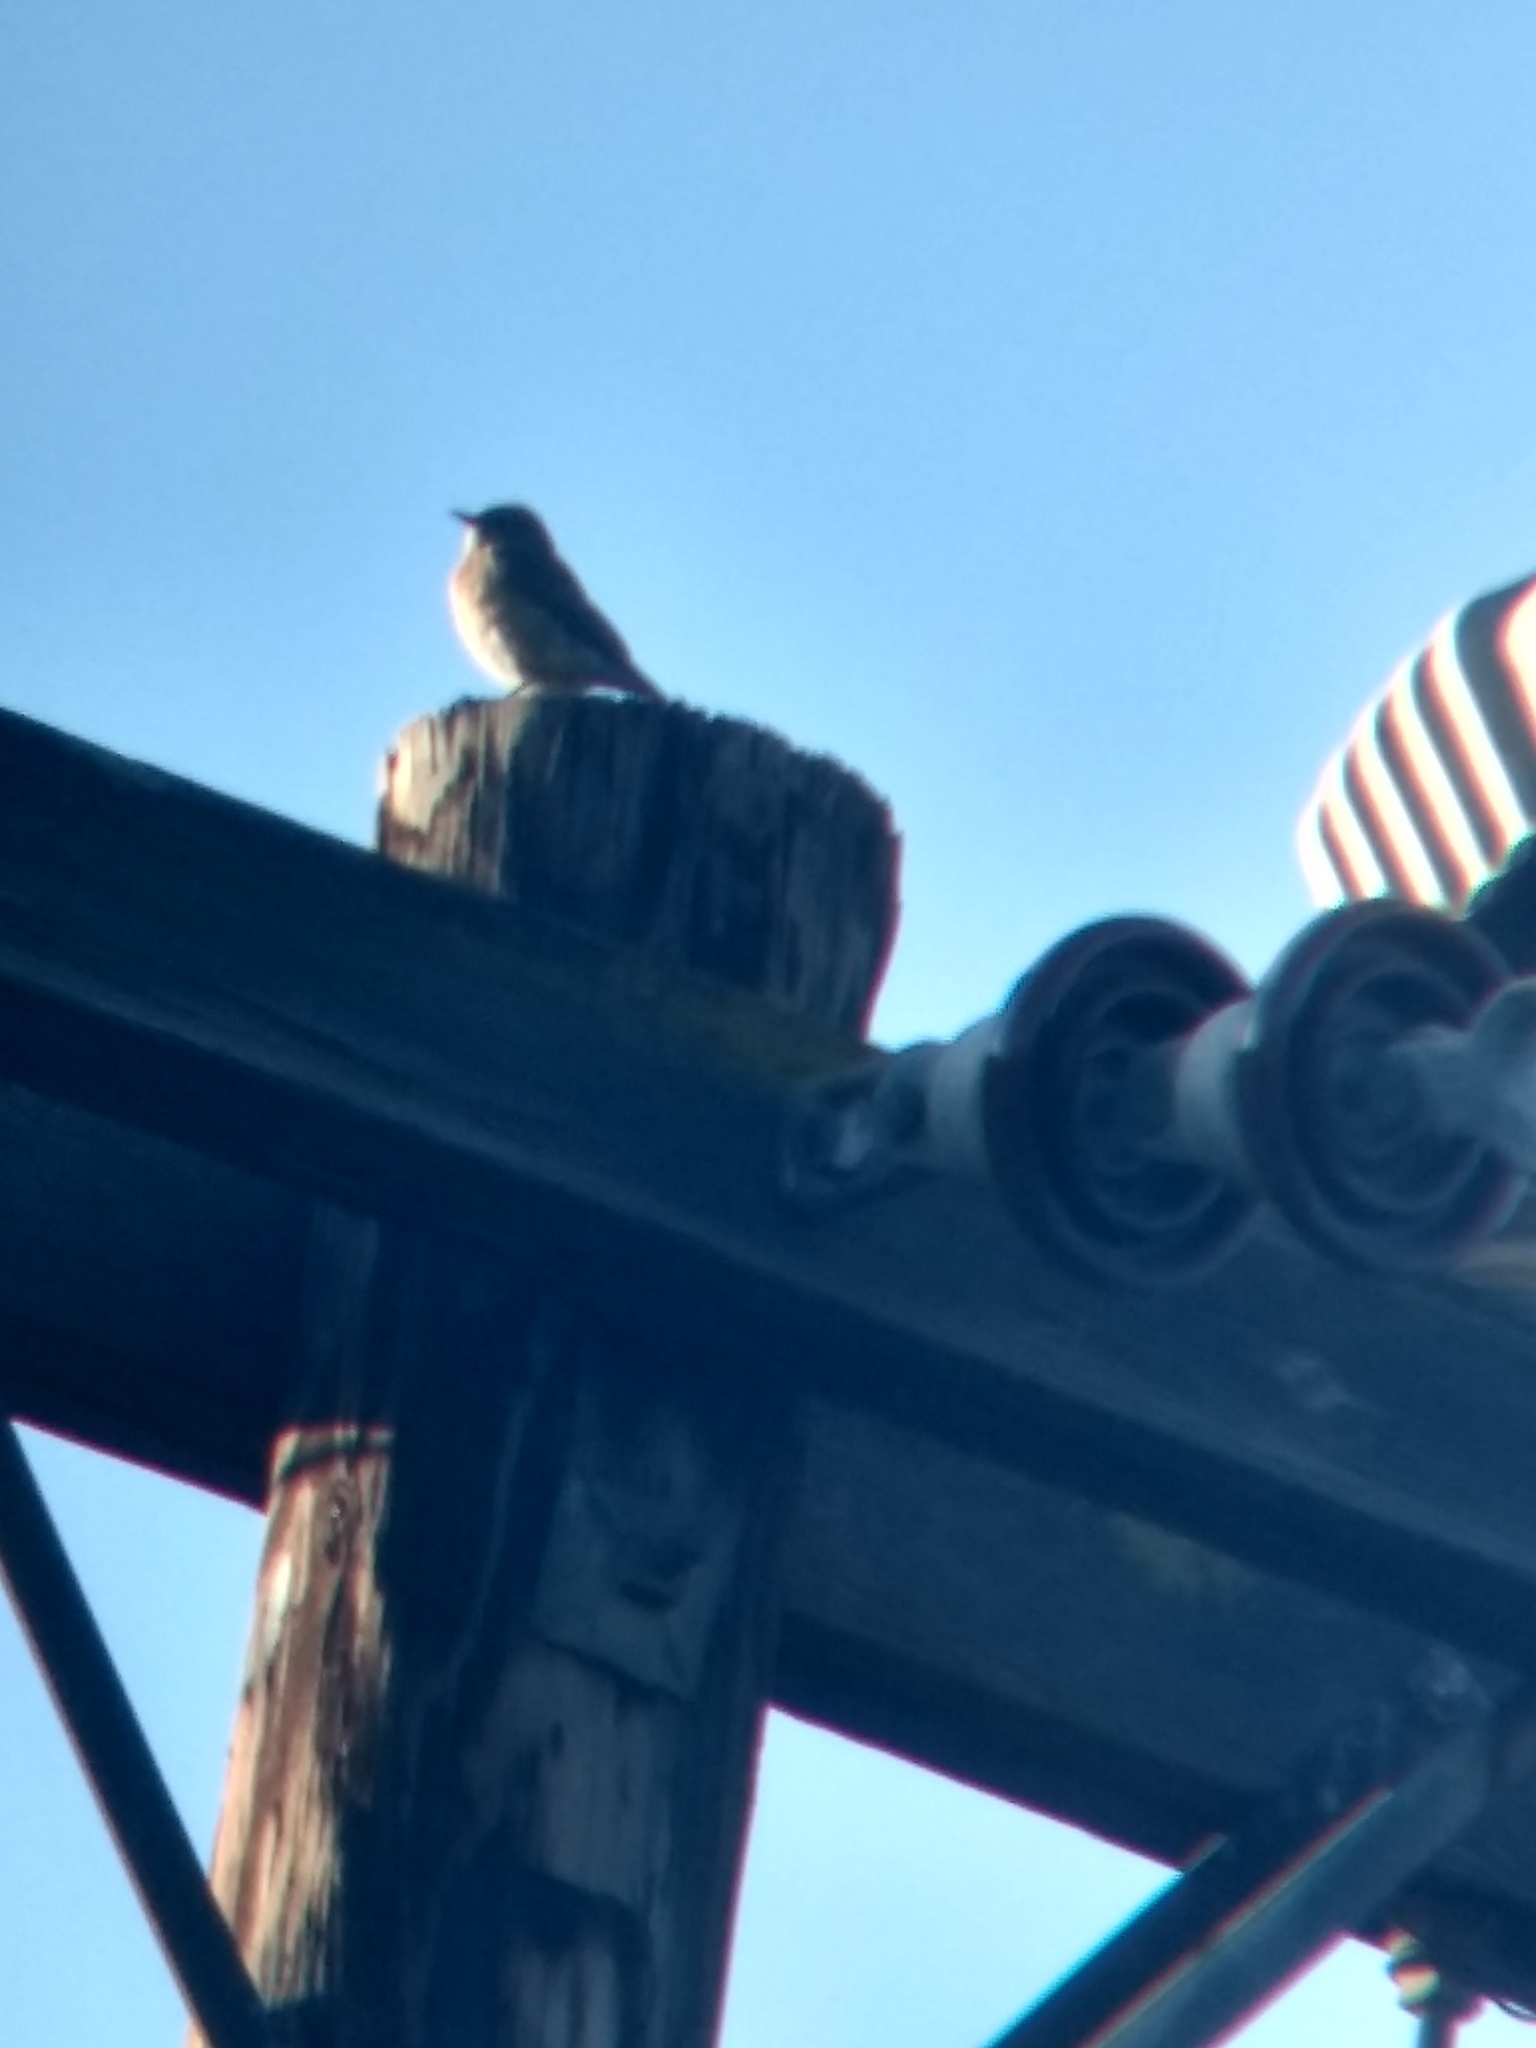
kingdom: Animalia
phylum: Chordata
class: Aves
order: Passeriformes
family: Turdidae
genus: Sialia
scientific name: Sialia mexicana
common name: Western bluebird
